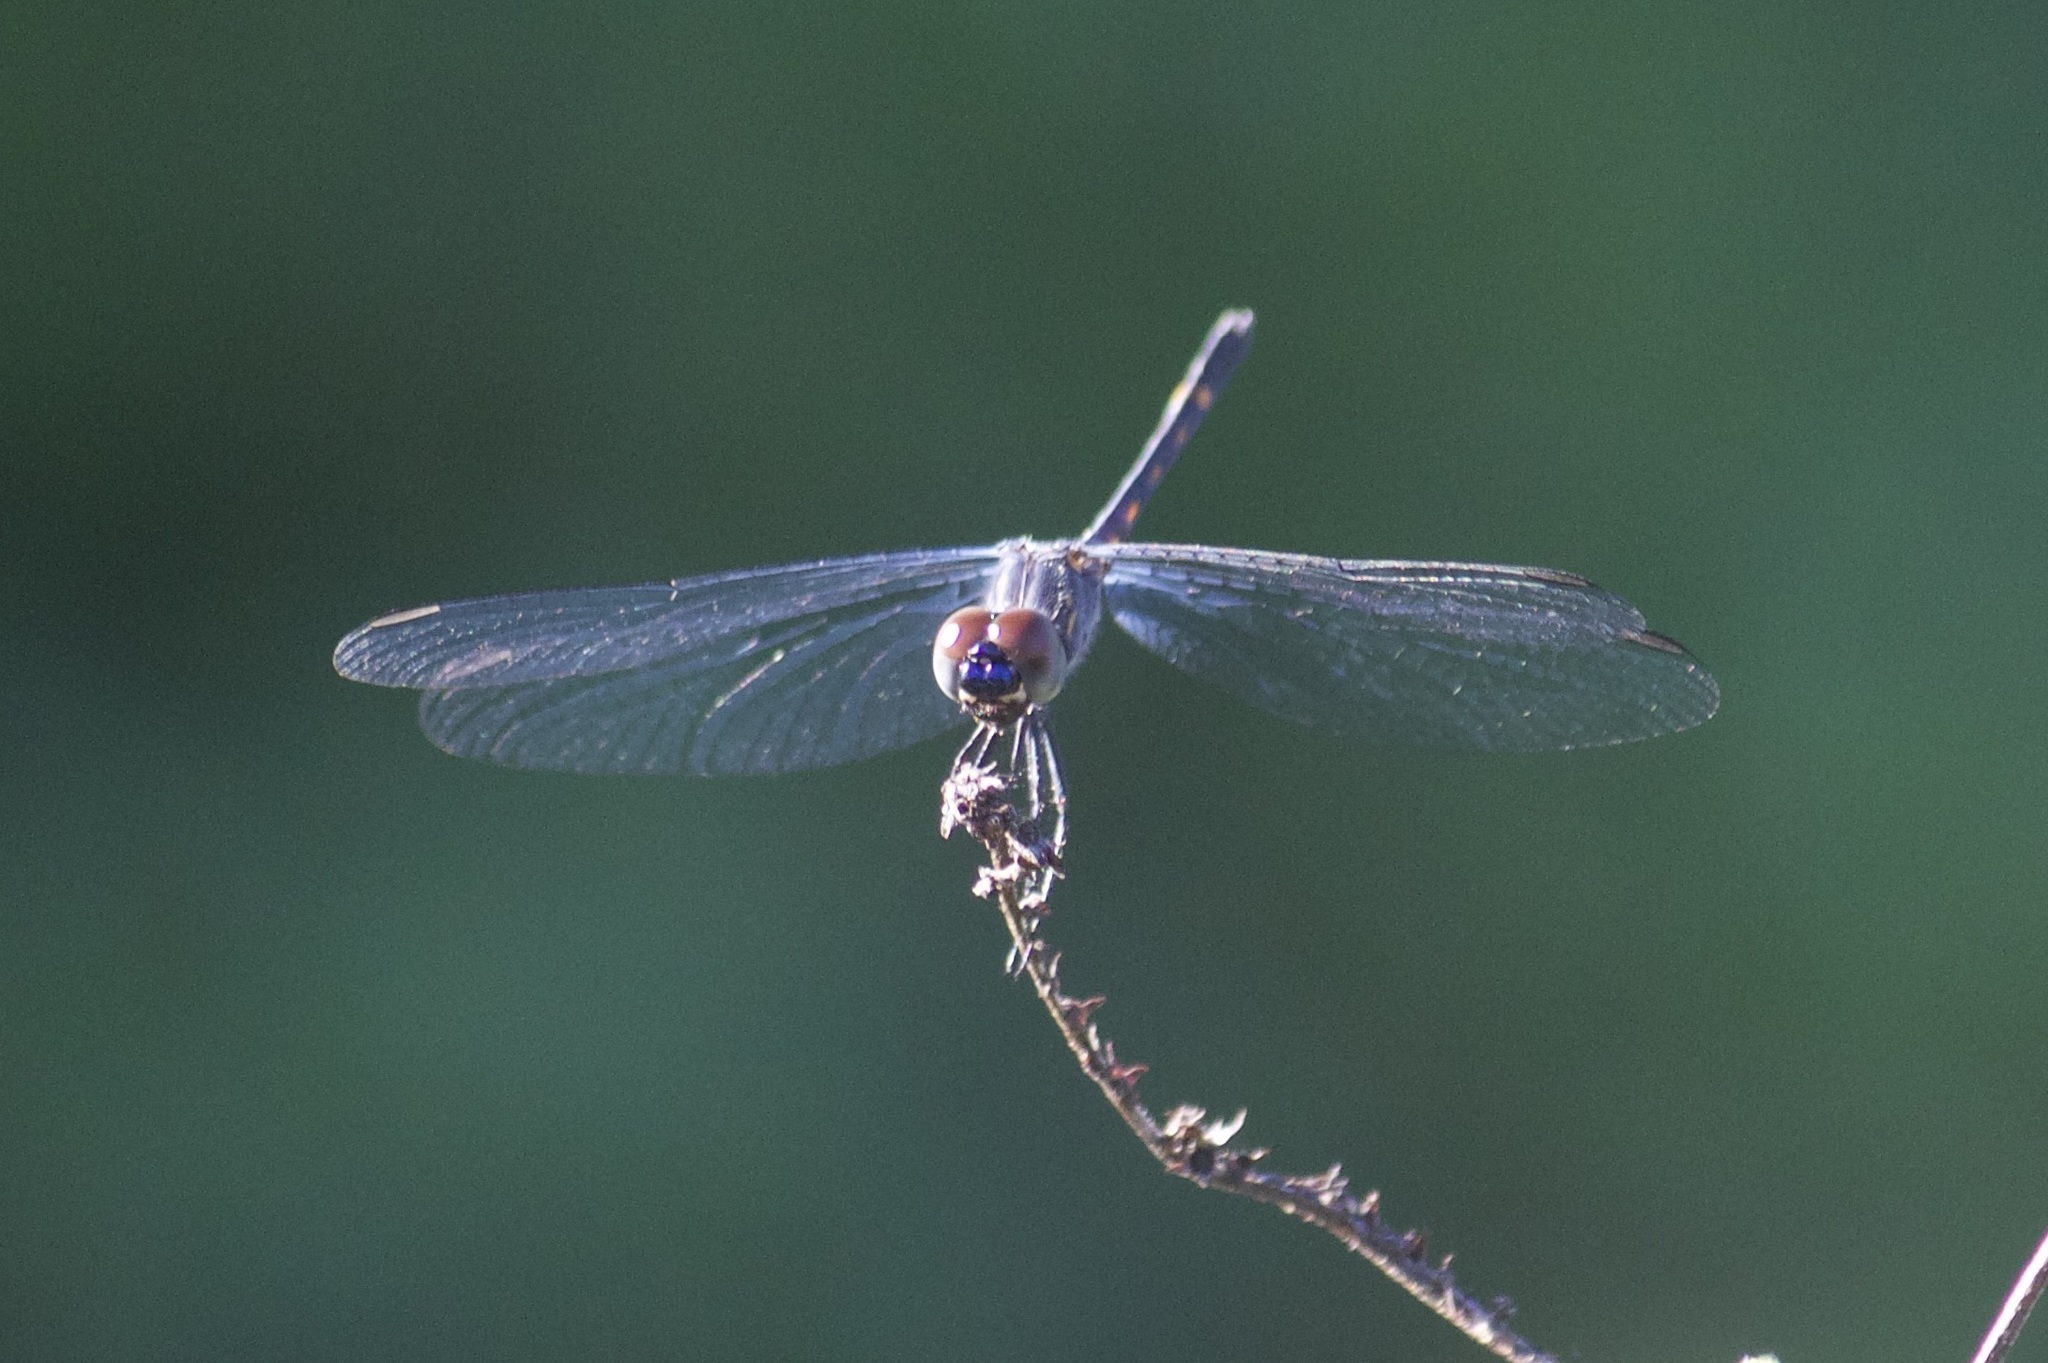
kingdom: Animalia
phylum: Arthropoda
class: Insecta
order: Odonata
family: Libellulidae
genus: Erythrodiplax
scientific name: Erythrodiplax berenice
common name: Seaside dragonlet
